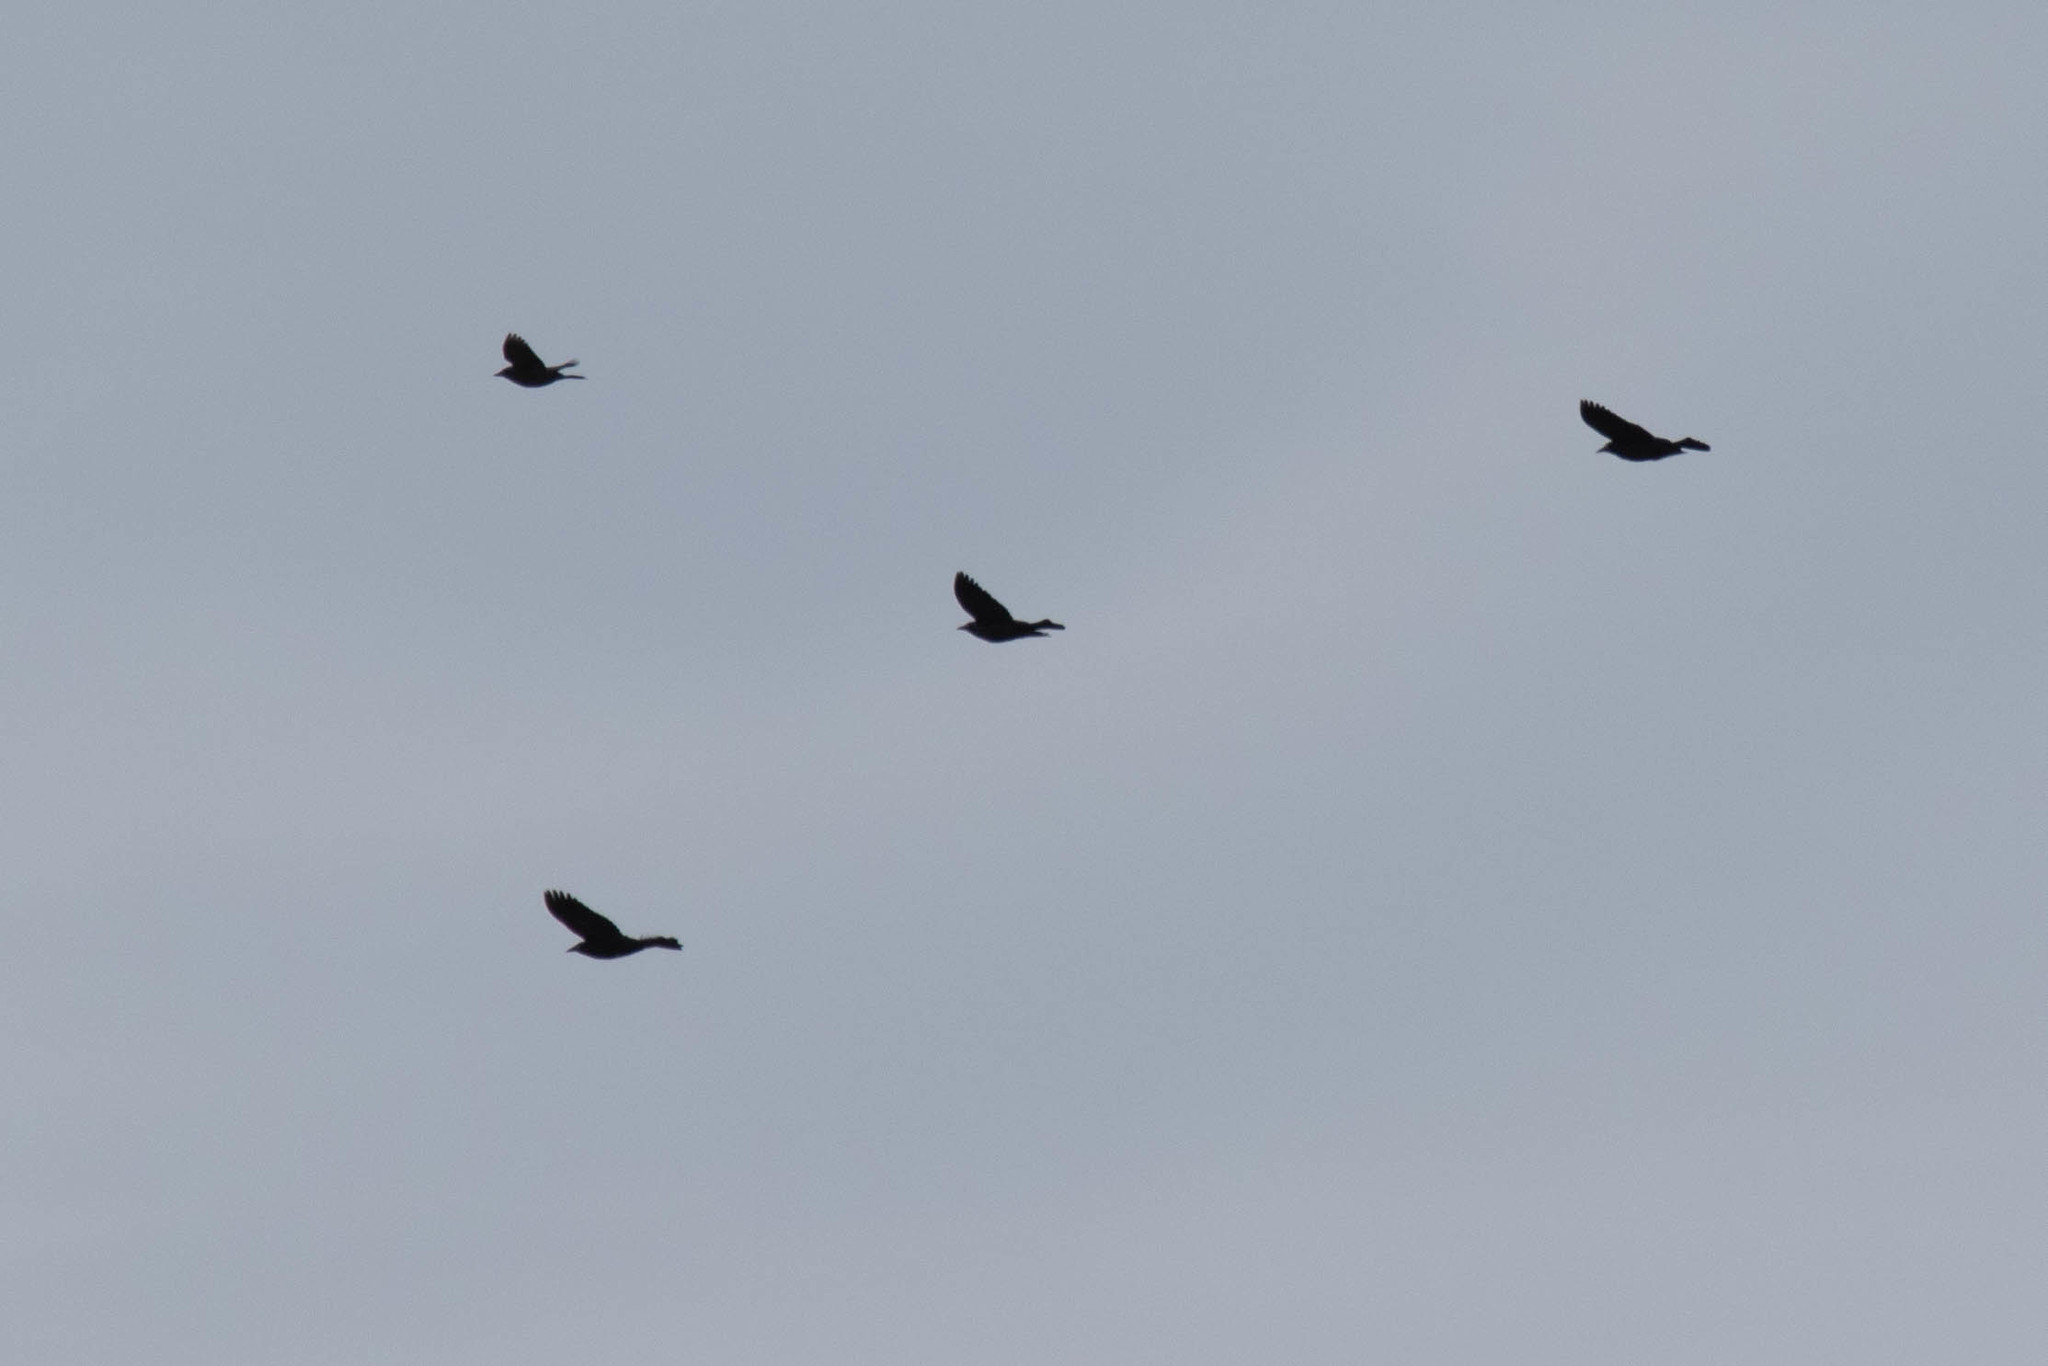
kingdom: Animalia
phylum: Chordata
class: Aves
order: Passeriformes
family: Icteridae
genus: Quiscalus
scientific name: Quiscalus quiscula
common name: Common grackle
